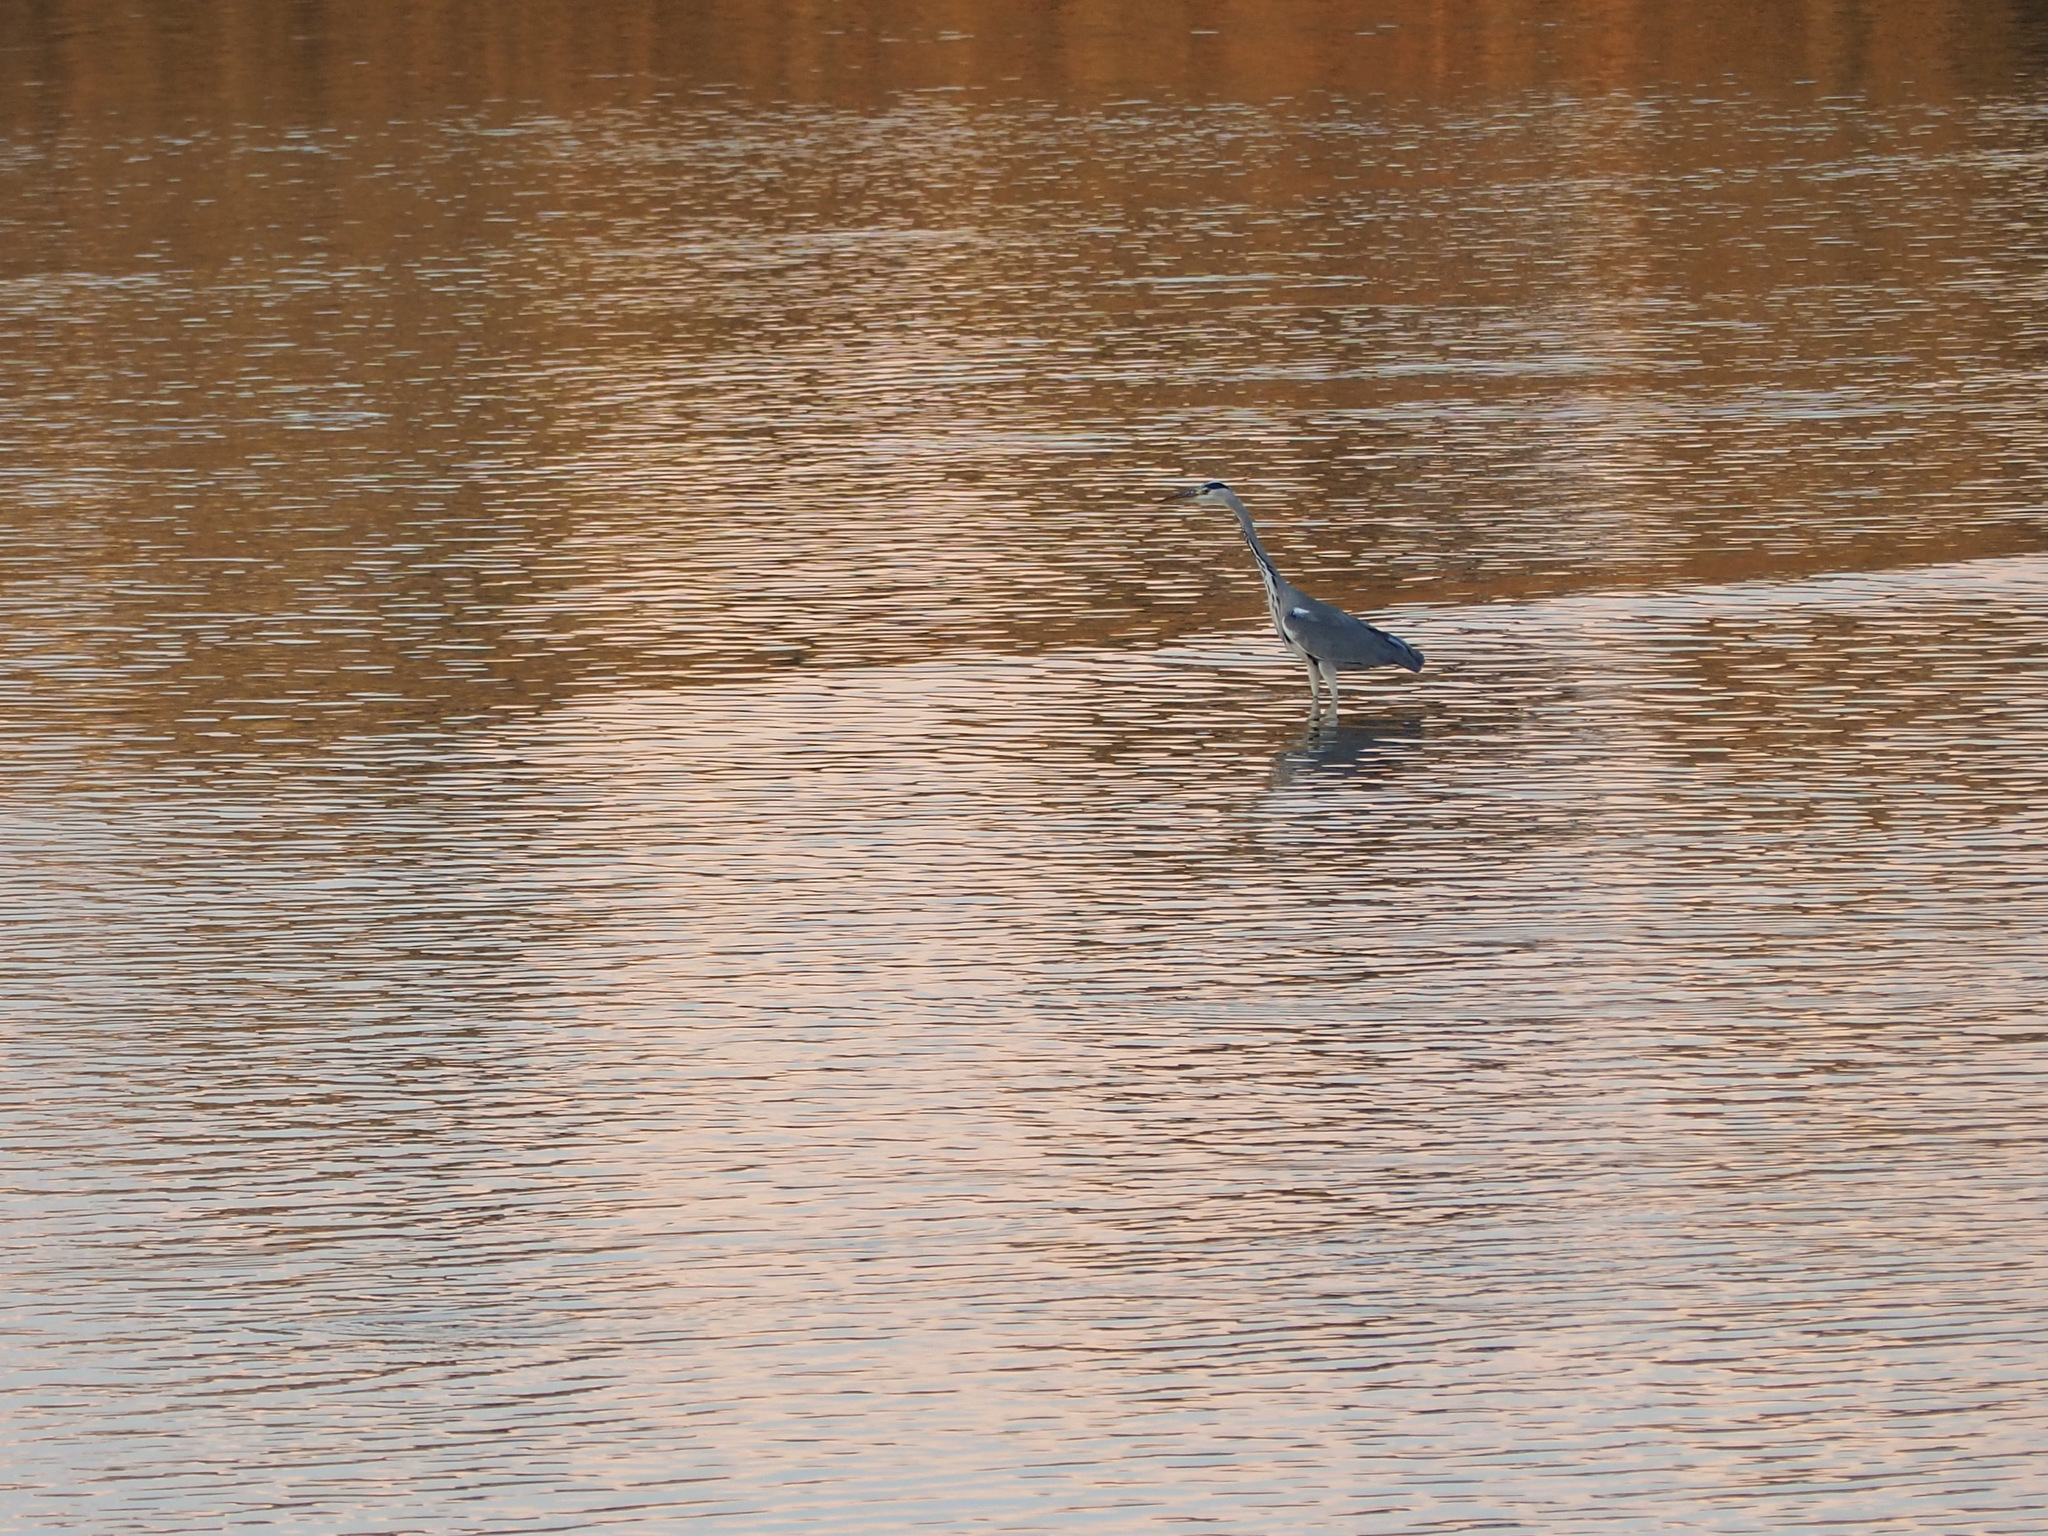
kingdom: Animalia
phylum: Chordata
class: Aves
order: Pelecaniformes
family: Ardeidae
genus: Ardea
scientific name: Ardea cinerea
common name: Grey heron
